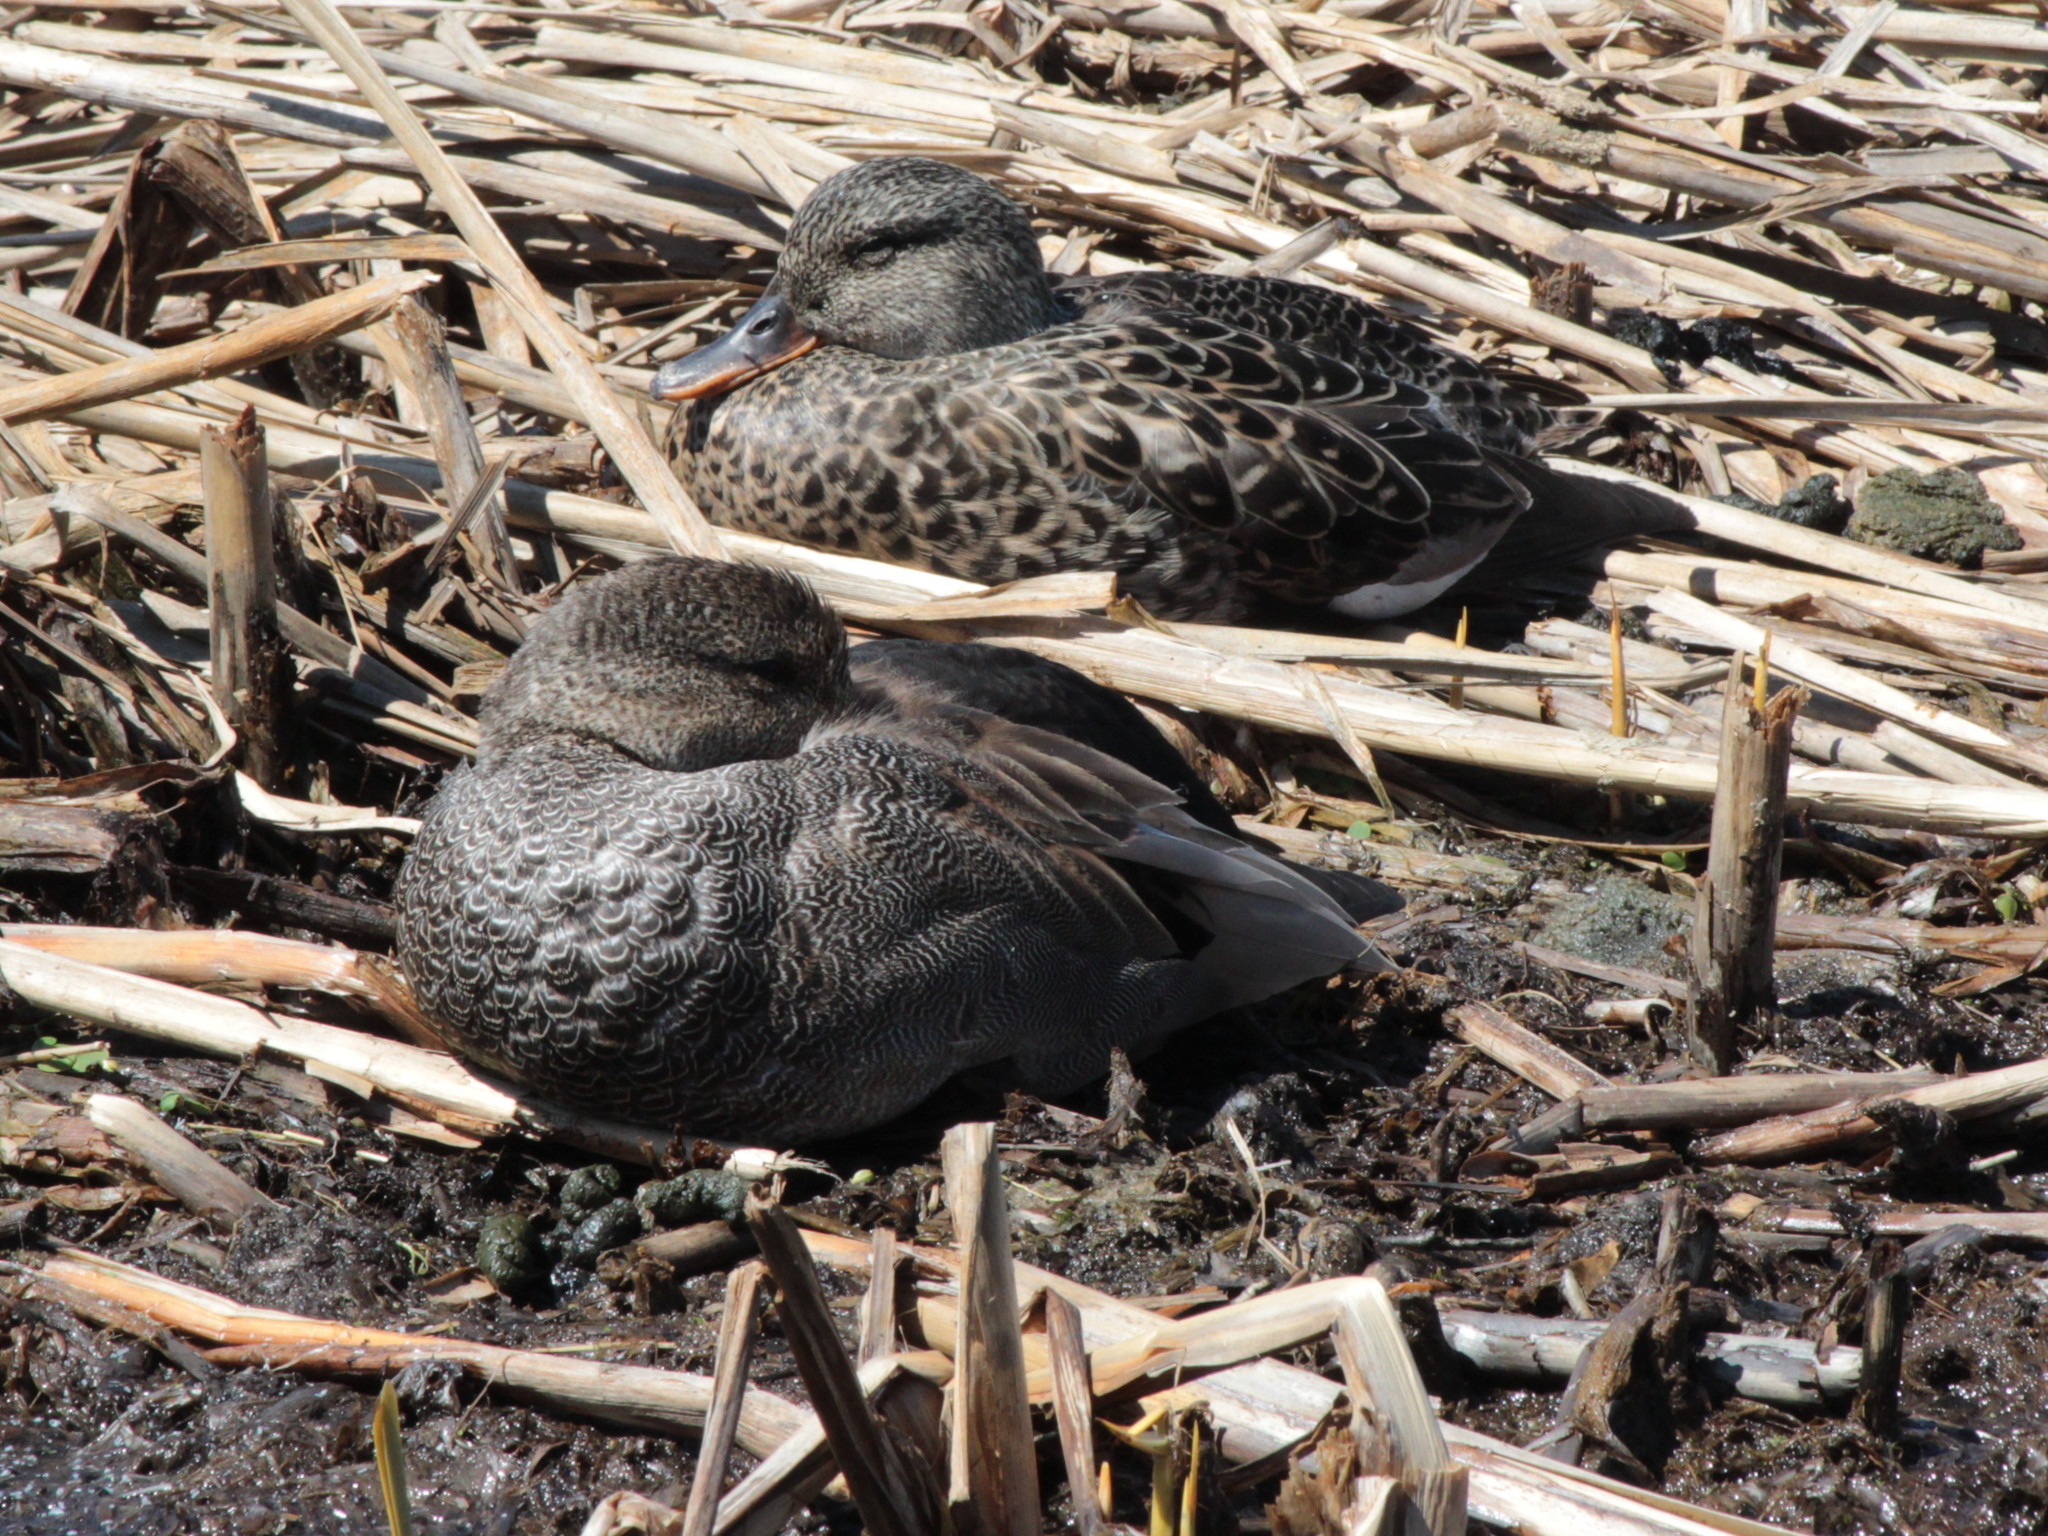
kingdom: Animalia
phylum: Chordata
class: Aves
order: Anseriformes
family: Anatidae
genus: Mareca
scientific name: Mareca strepera
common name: Gadwall
